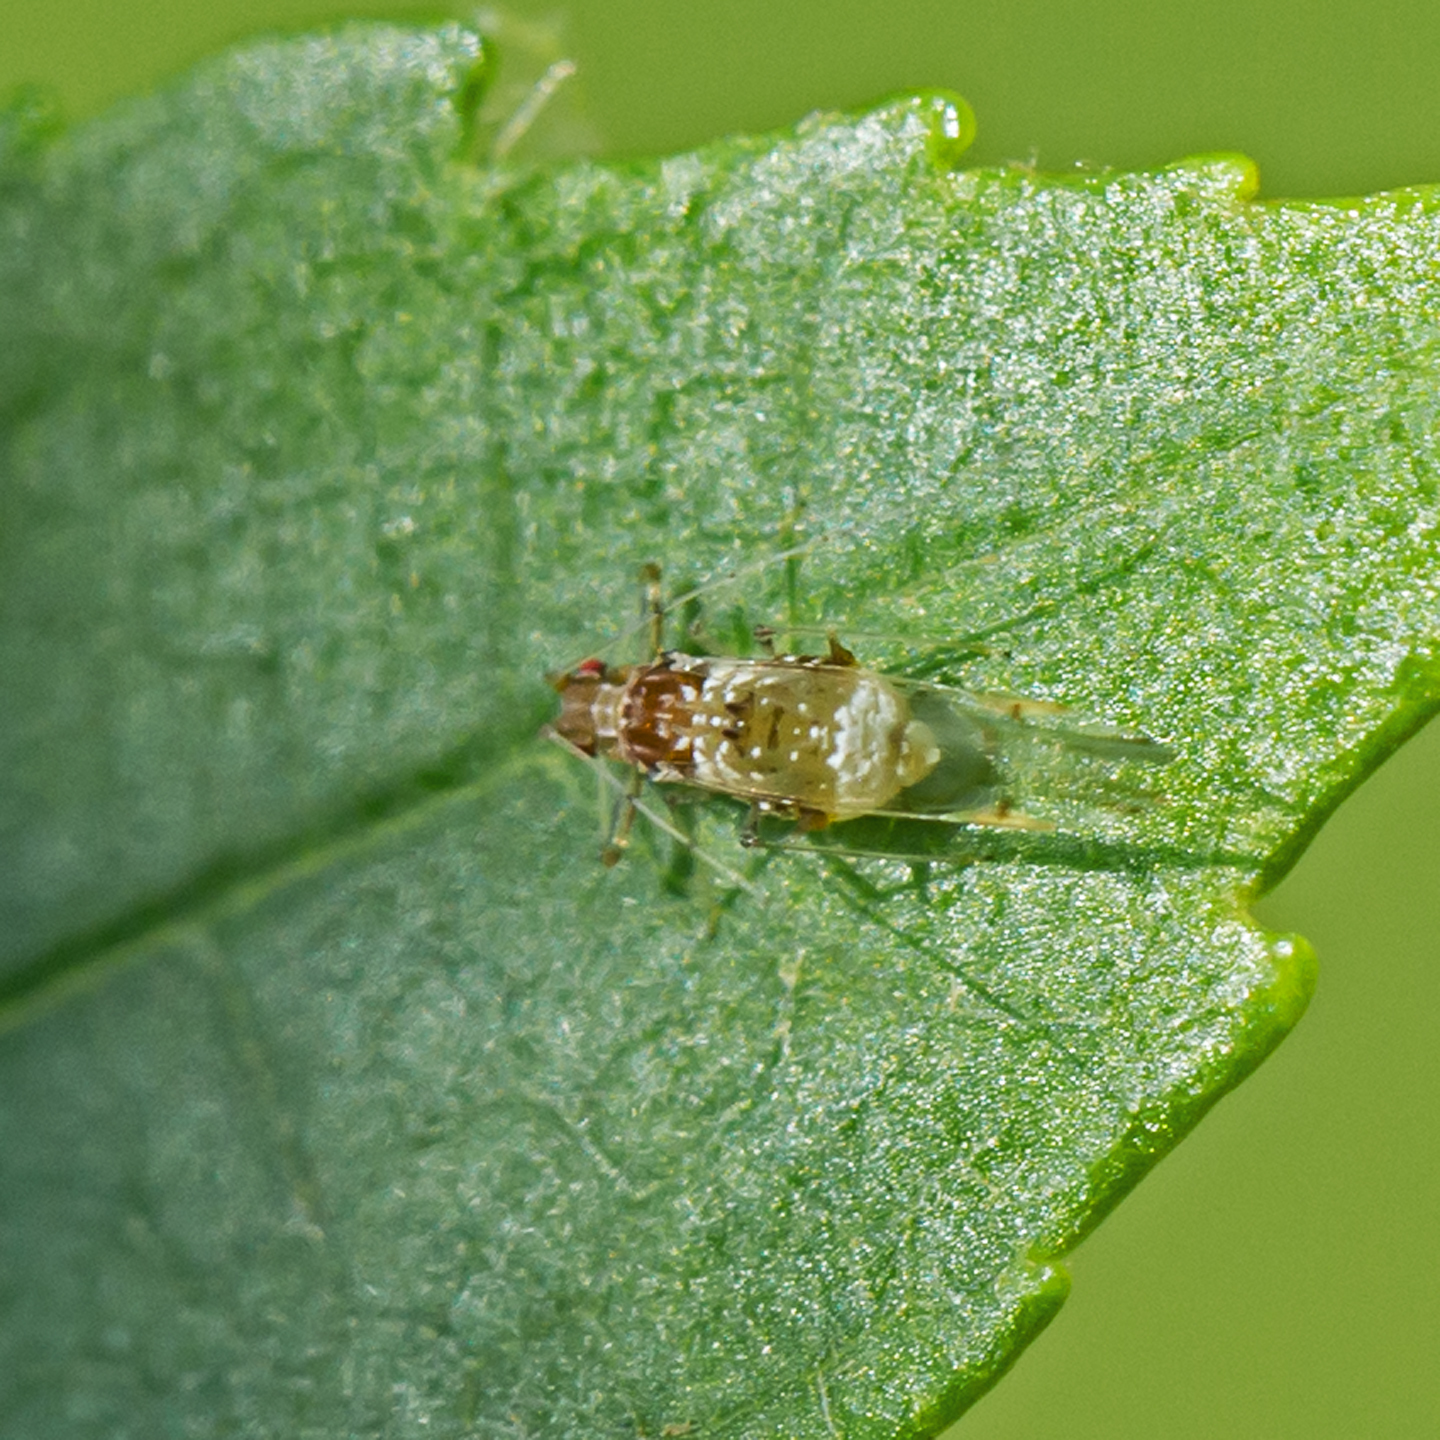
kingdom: Animalia
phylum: Arthropoda
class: Insecta
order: Hemiptera
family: Aphididae
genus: Drepanaphis
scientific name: Drepanaphis acerifoliae
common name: Painted maple aphid
